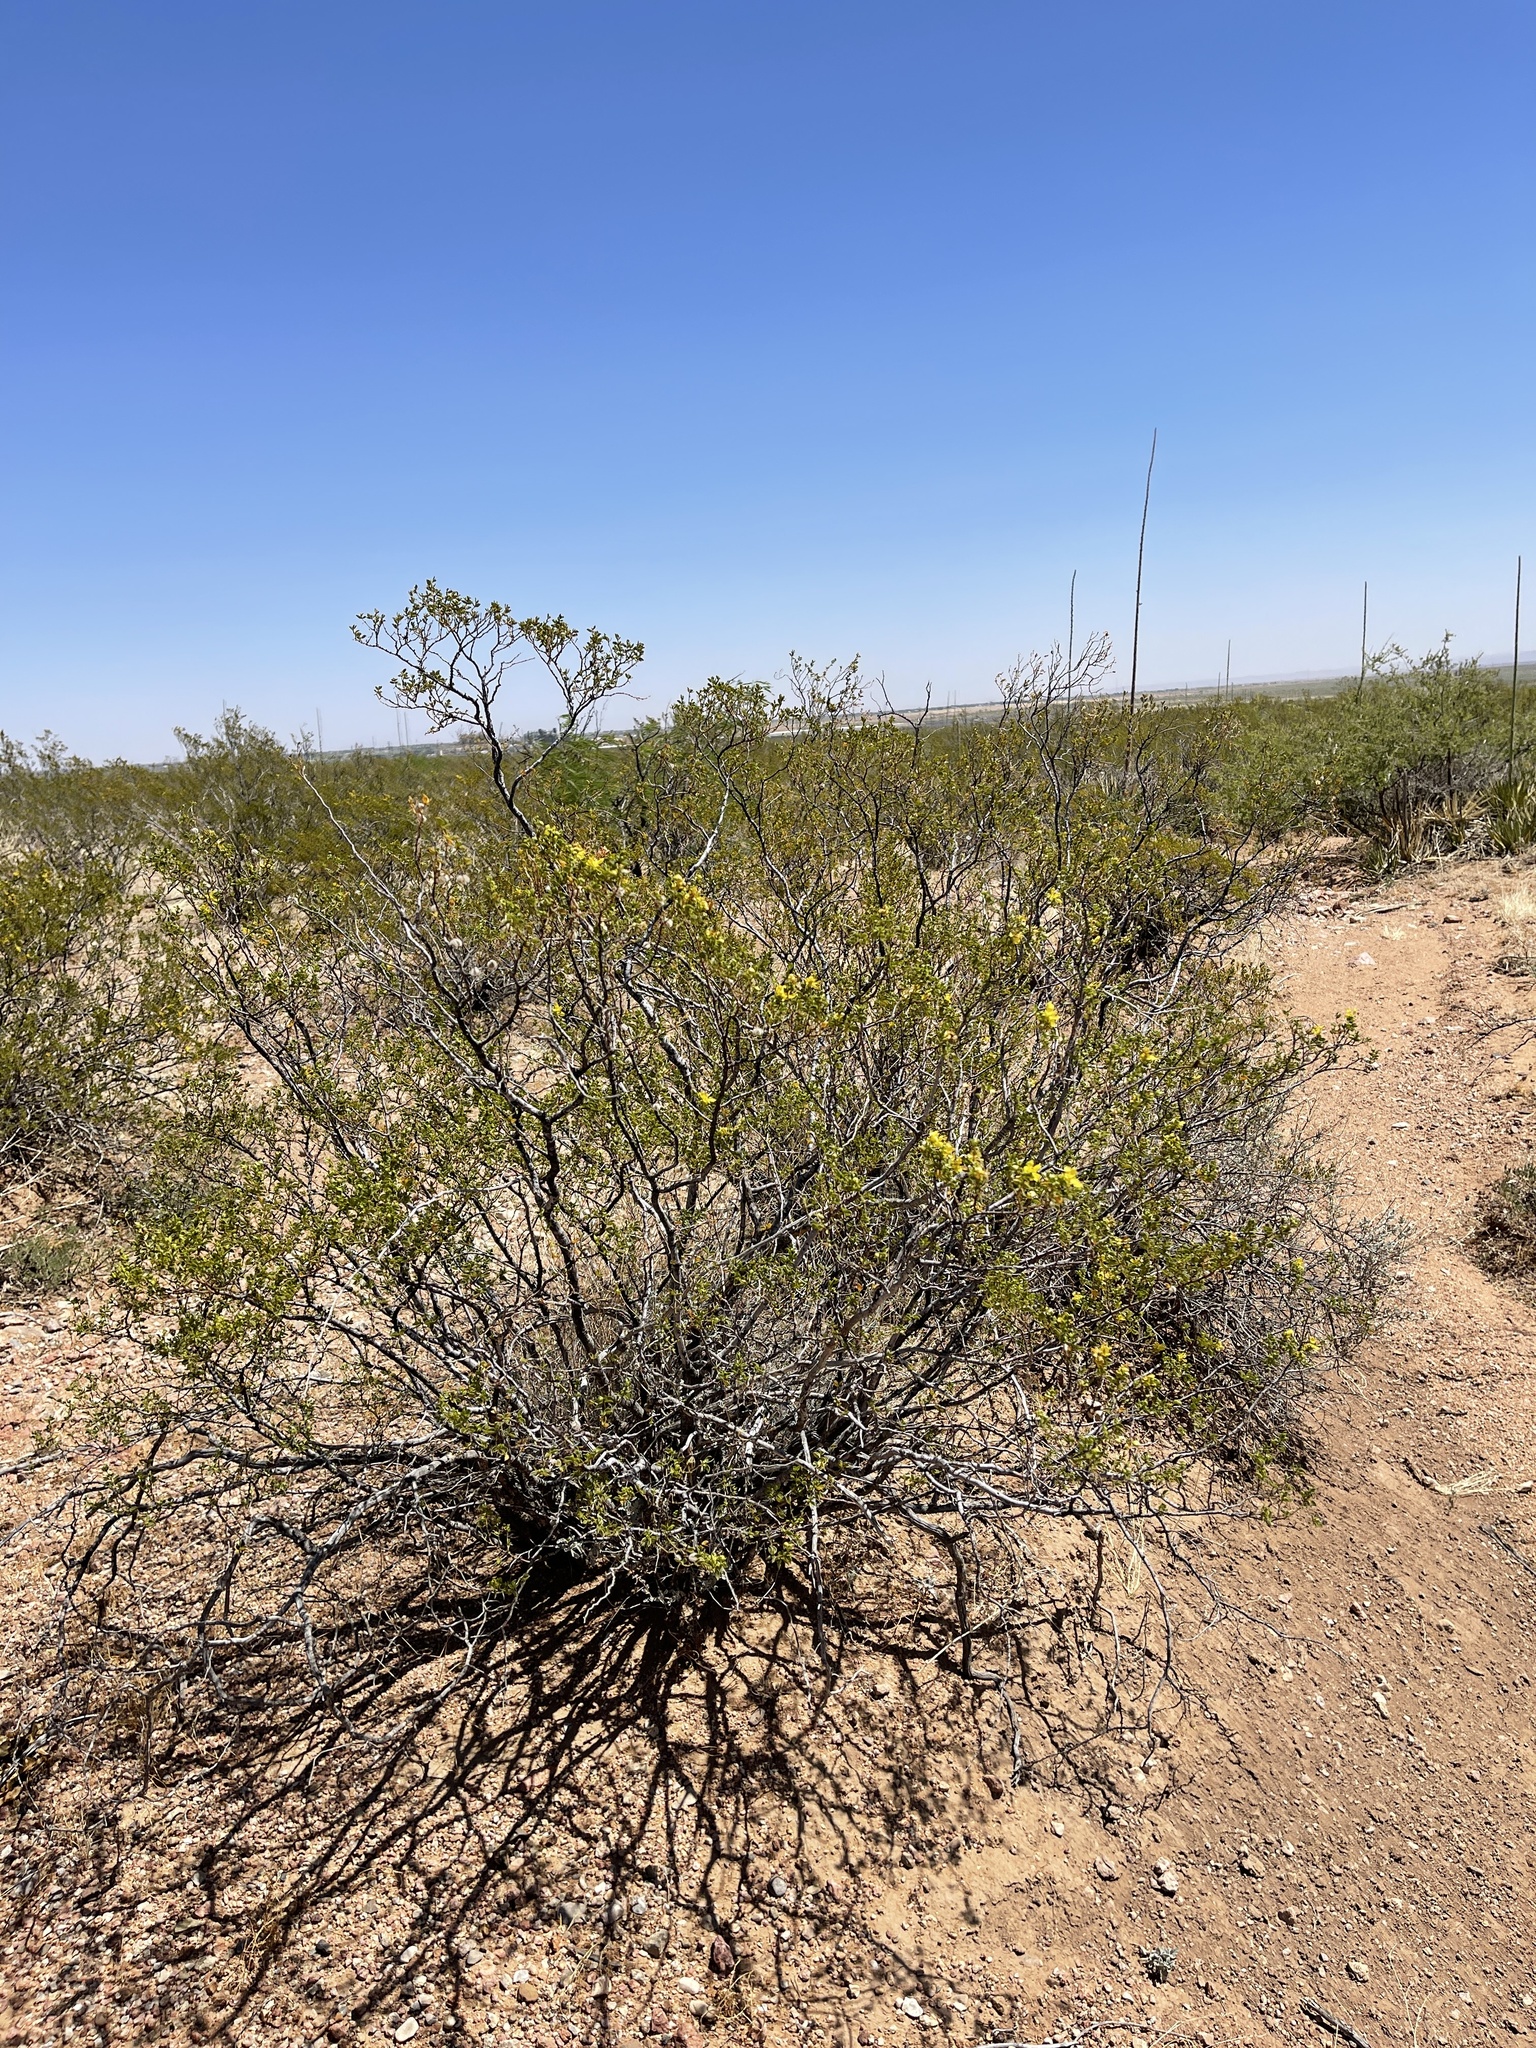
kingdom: Plantae
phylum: Tracheophyta
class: Magnoliopsida
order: Zygophyllales
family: Zygophyllaceae
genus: Larrea
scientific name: Larrea tridentata
